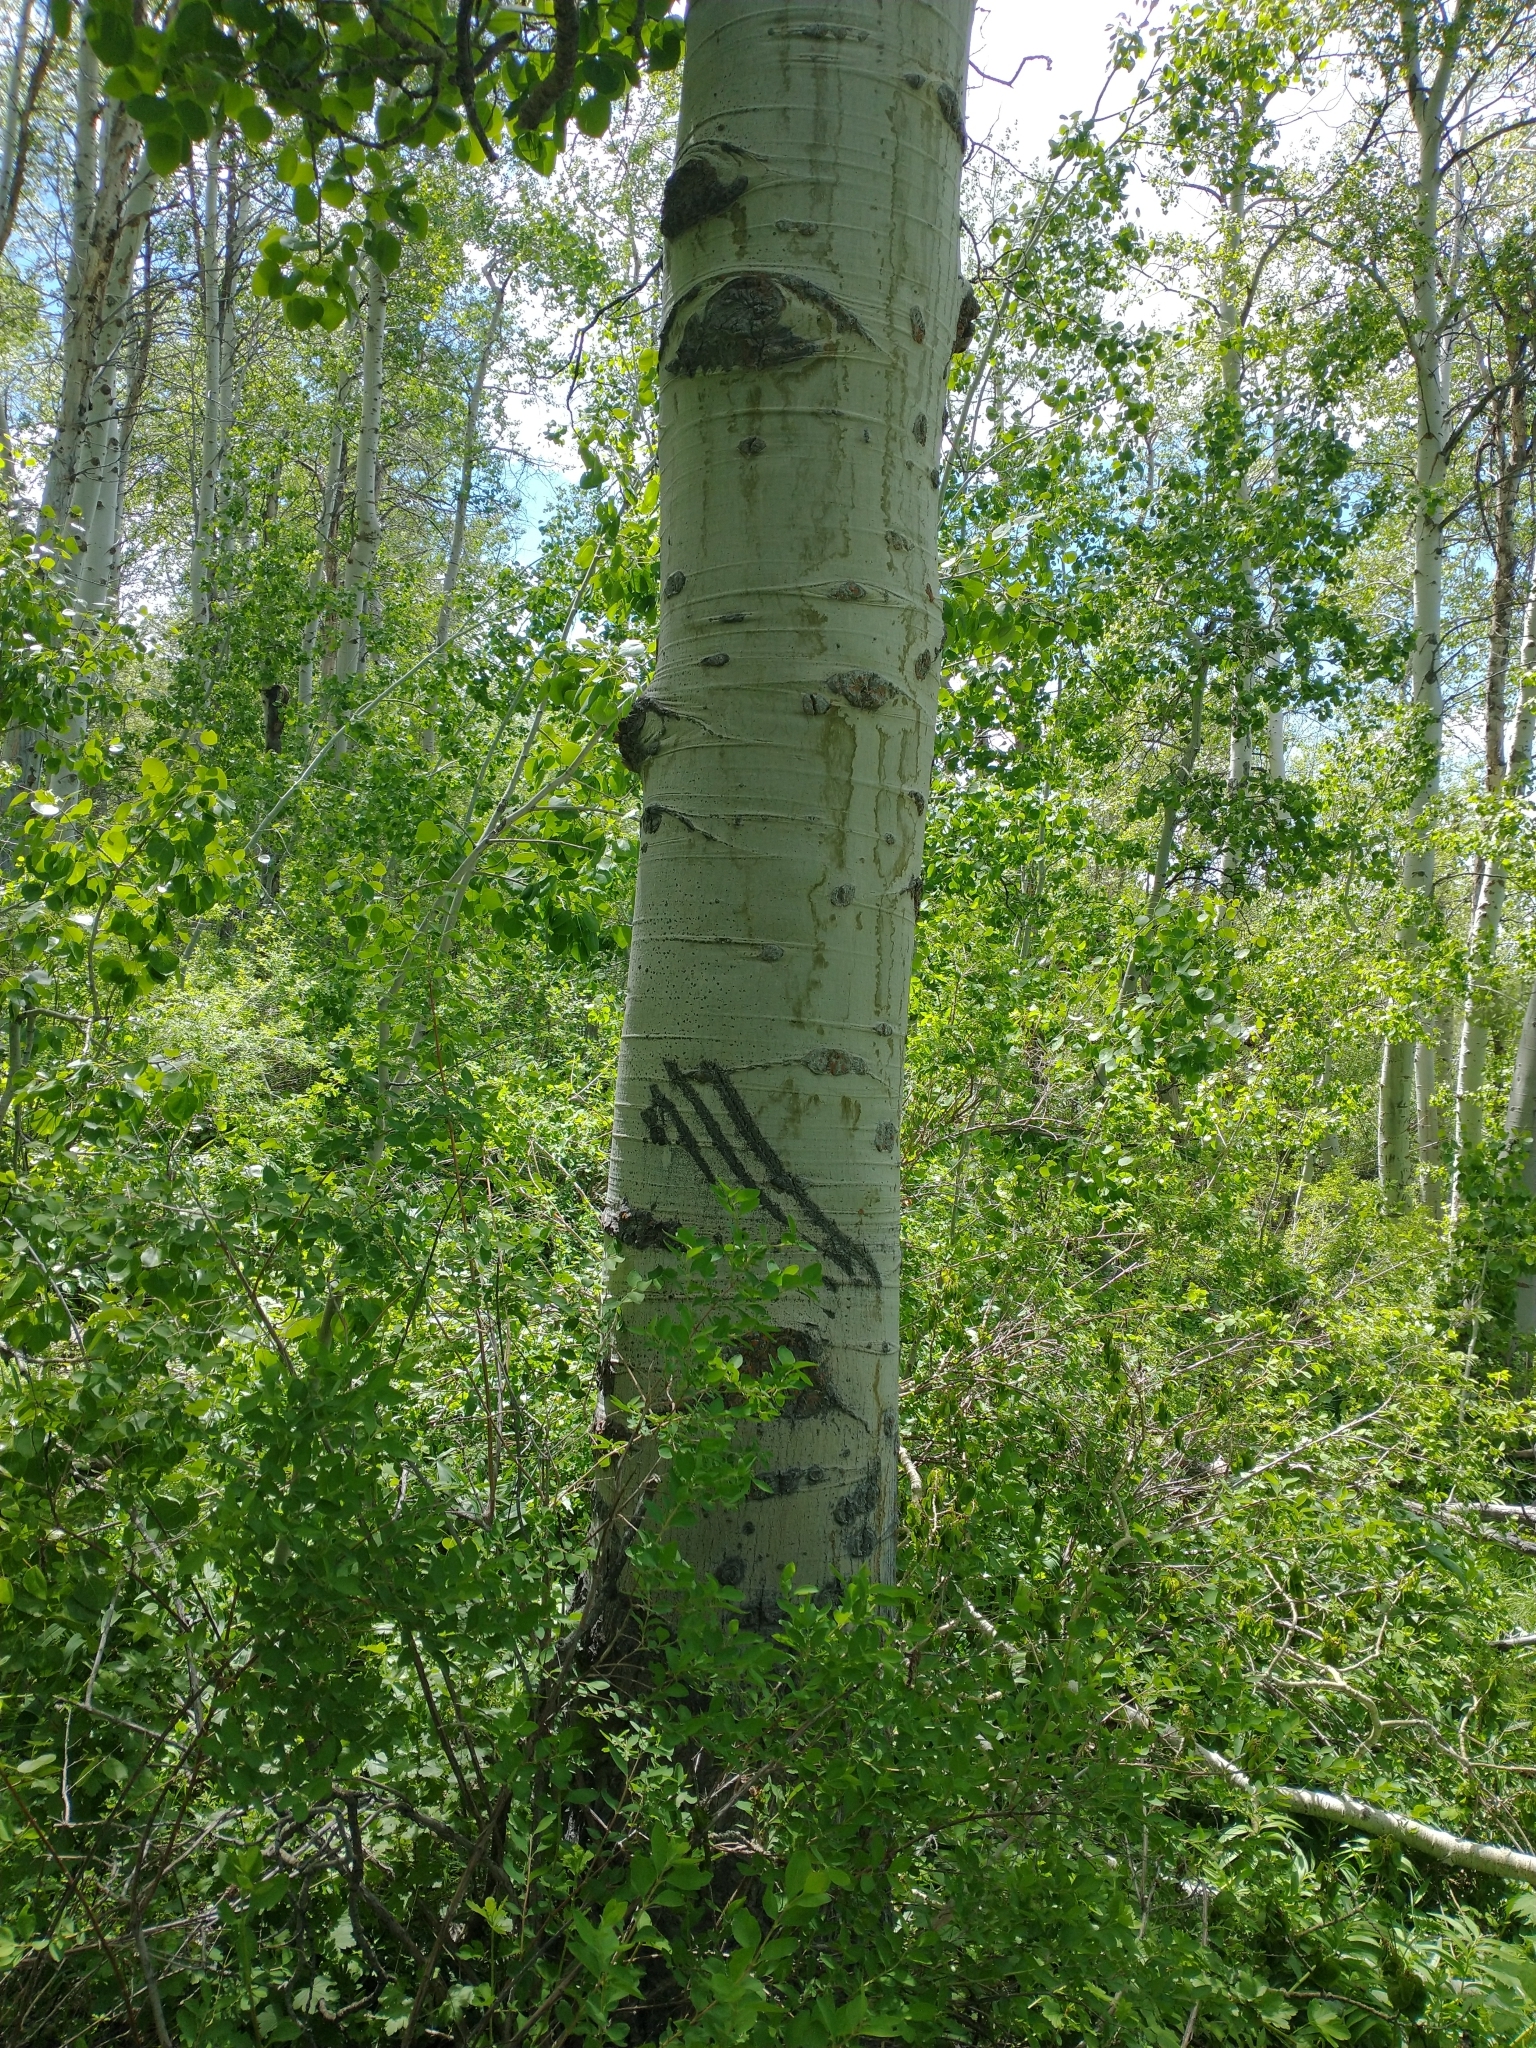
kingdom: Animalia
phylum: Chordata
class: Mammalia
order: Carnivora
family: Ursidae
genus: Ursus
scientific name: Ursus americanus
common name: American black bear
